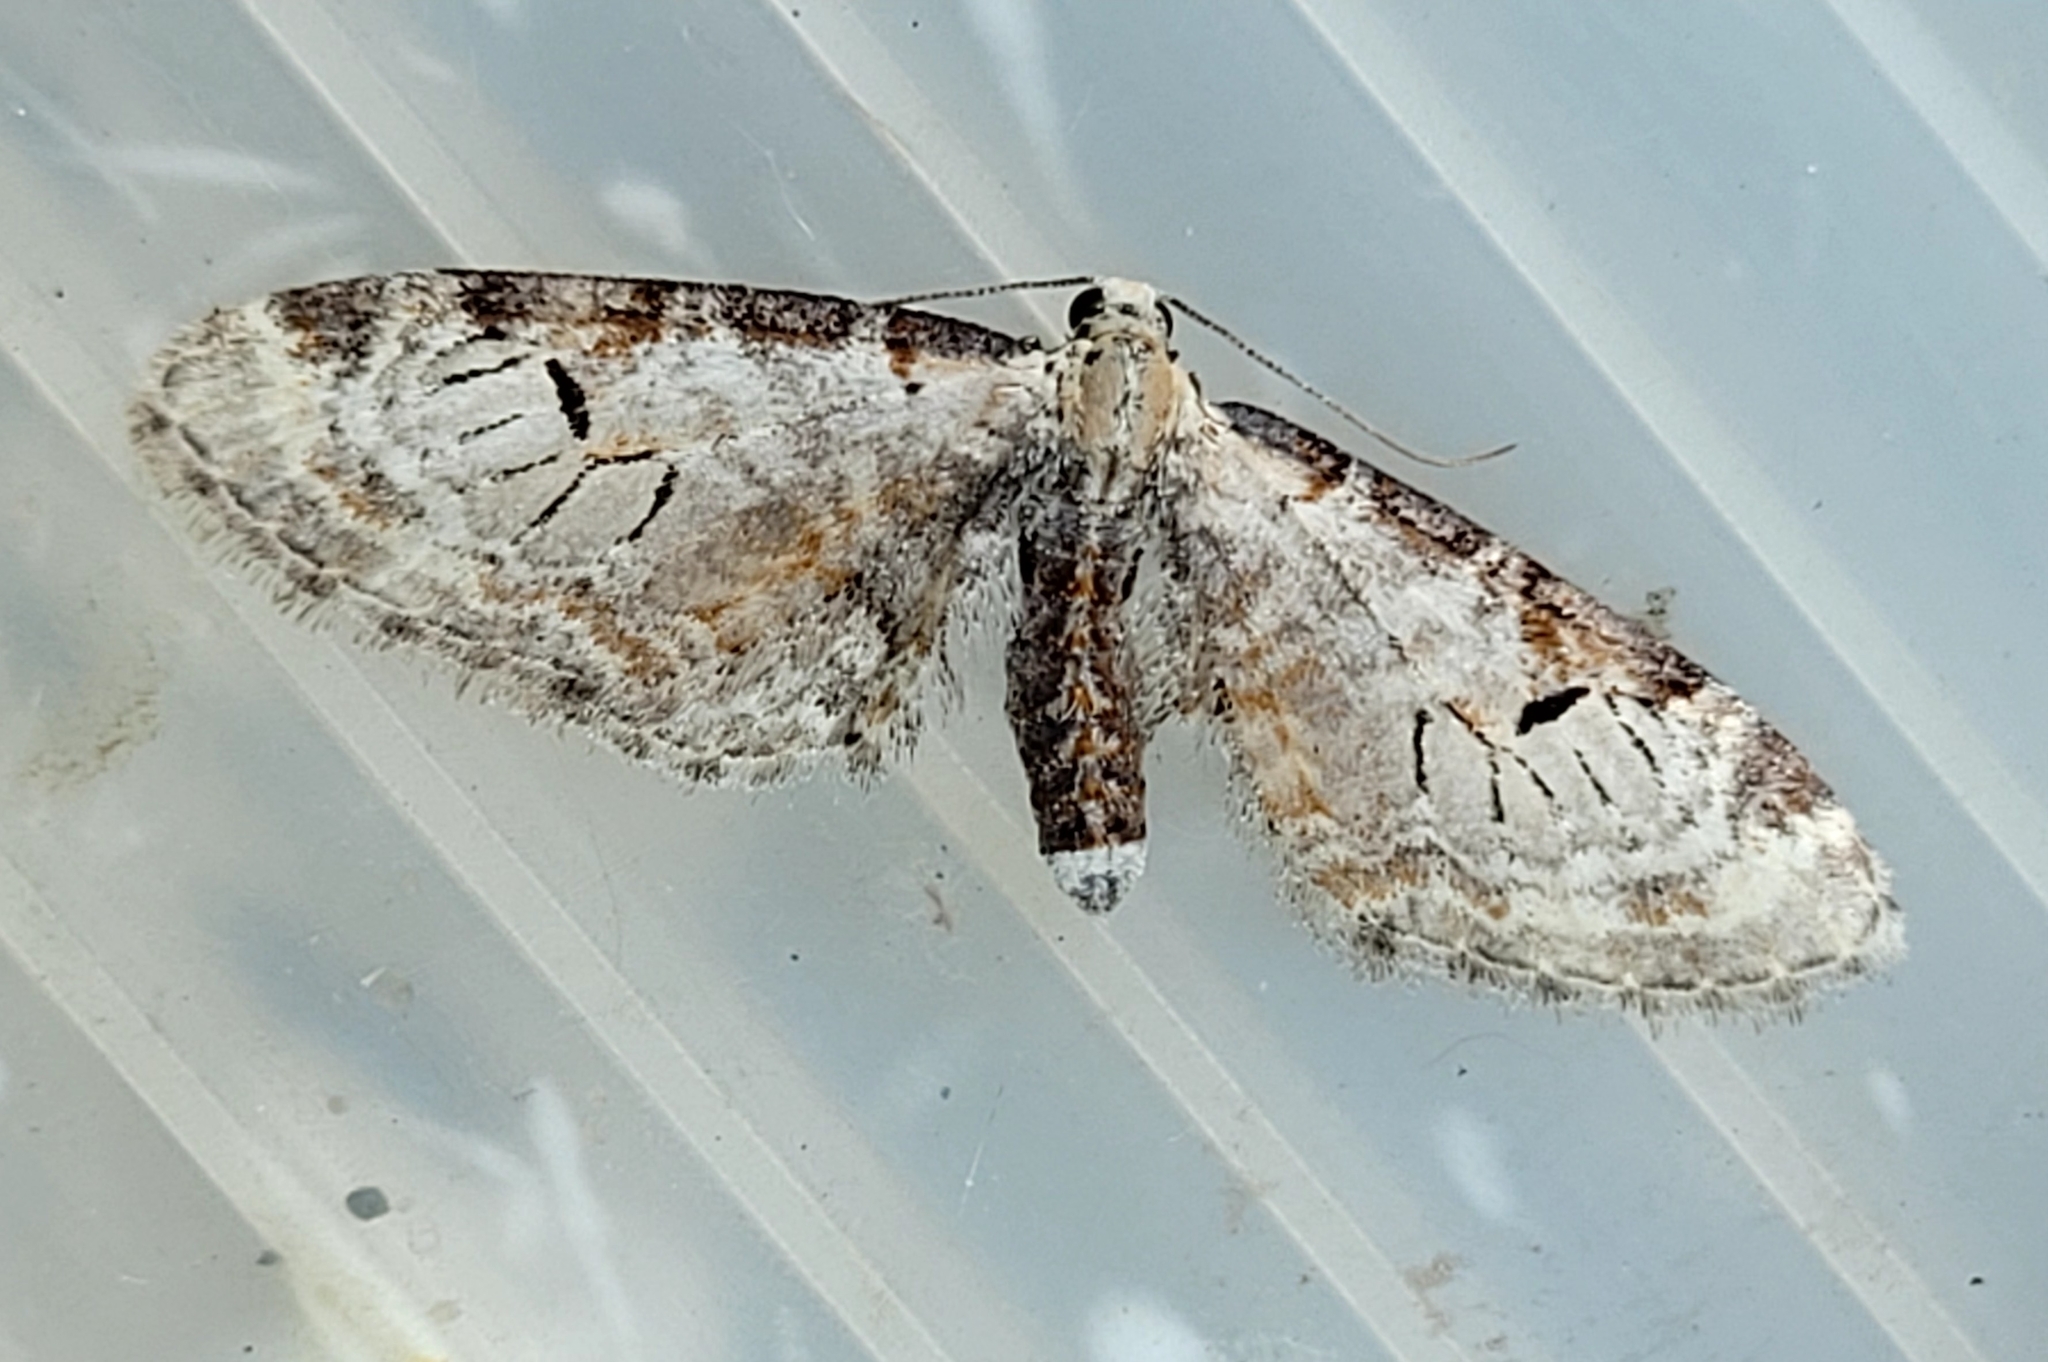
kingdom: Animalia
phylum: Arthropoda
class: Insecta
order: Lepidoptera
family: Geometridae
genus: Eupithecia
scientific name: Eupithecia ravocostaliata
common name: Great varigated pug
